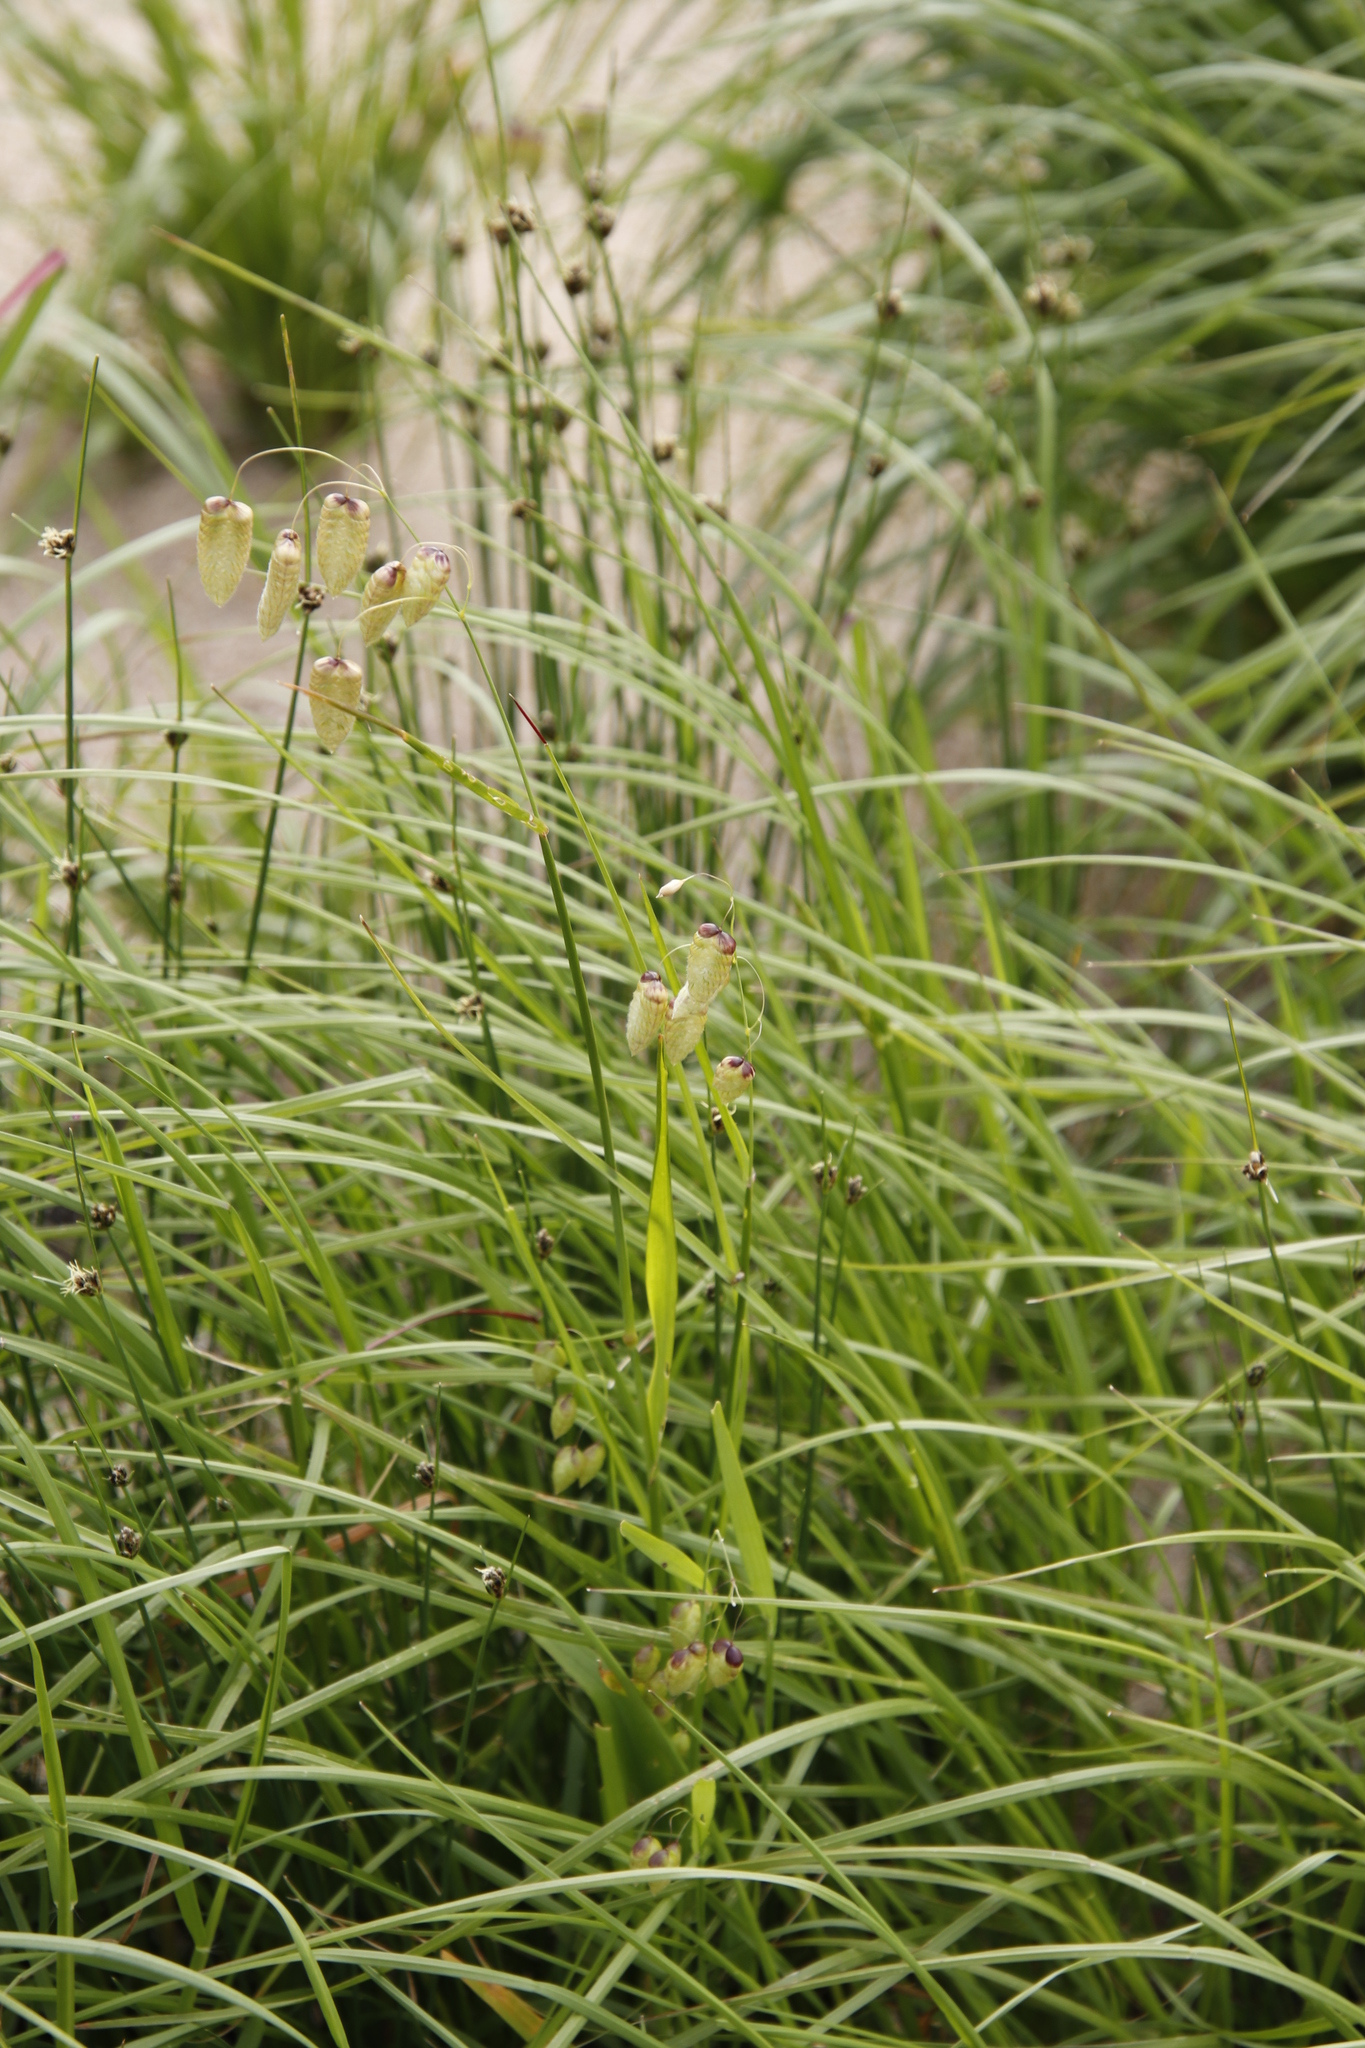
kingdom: Plantae
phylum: Tracheophyta
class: Liliopsida
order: Poales
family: Poaceae
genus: Briza
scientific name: Briza maxima
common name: Big quakinggrass
